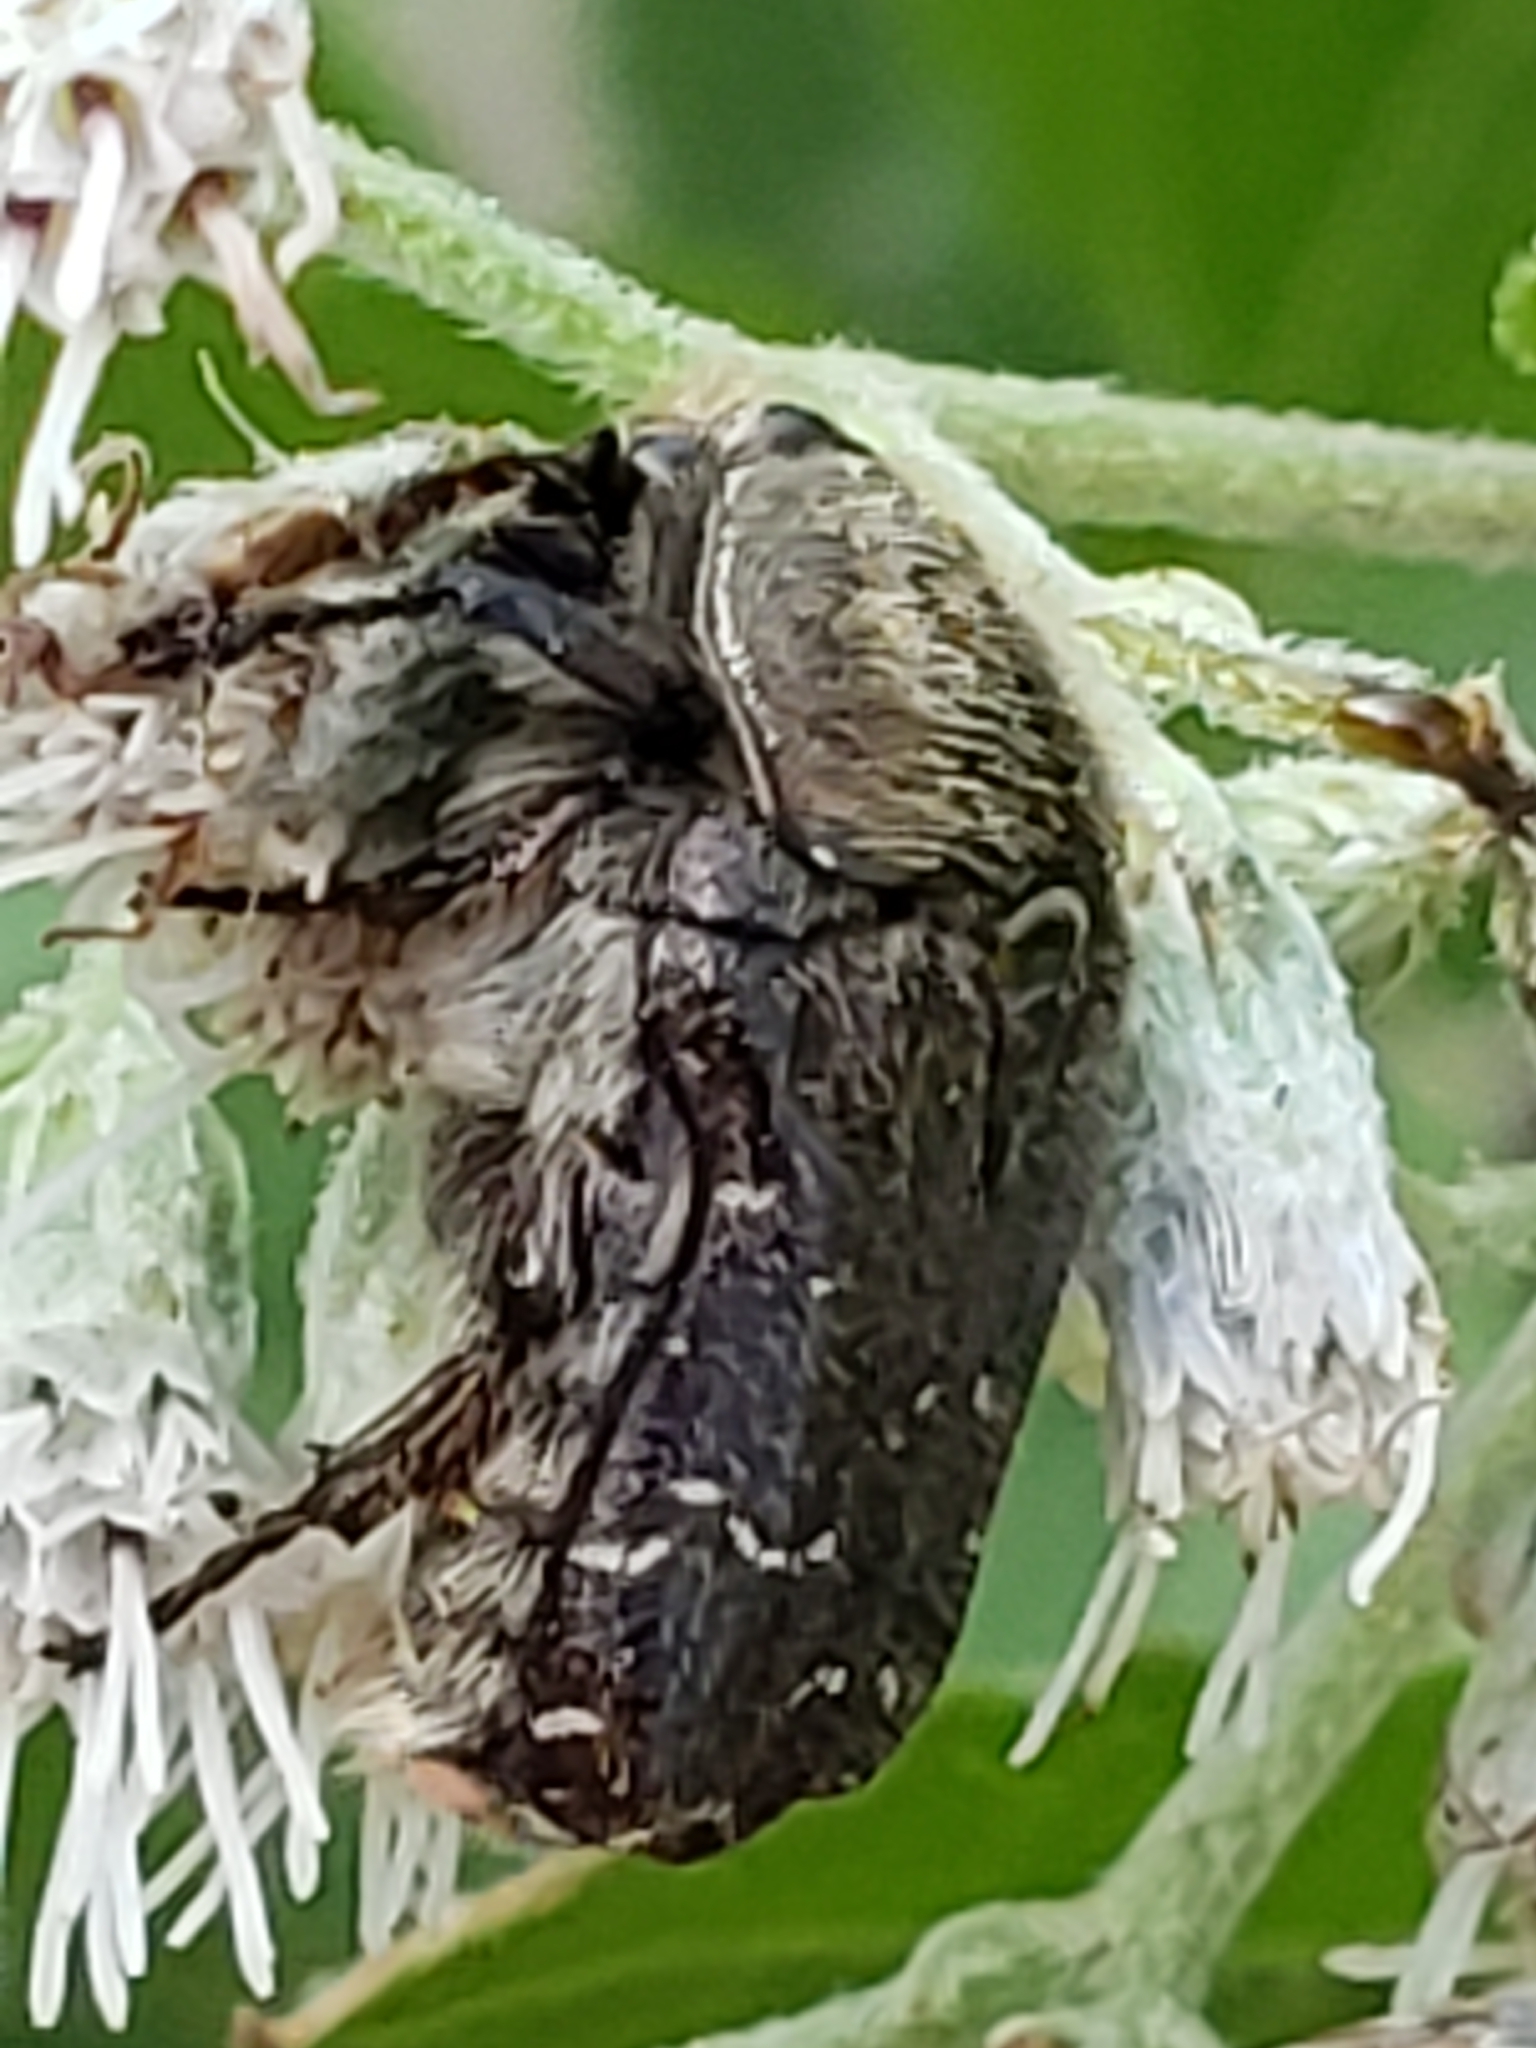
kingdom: Animalia
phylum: Arthropoda
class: Insecta
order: Coleoptera
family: Scarabaeidae
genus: Euphoria
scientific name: Euphoria sepulcralis
